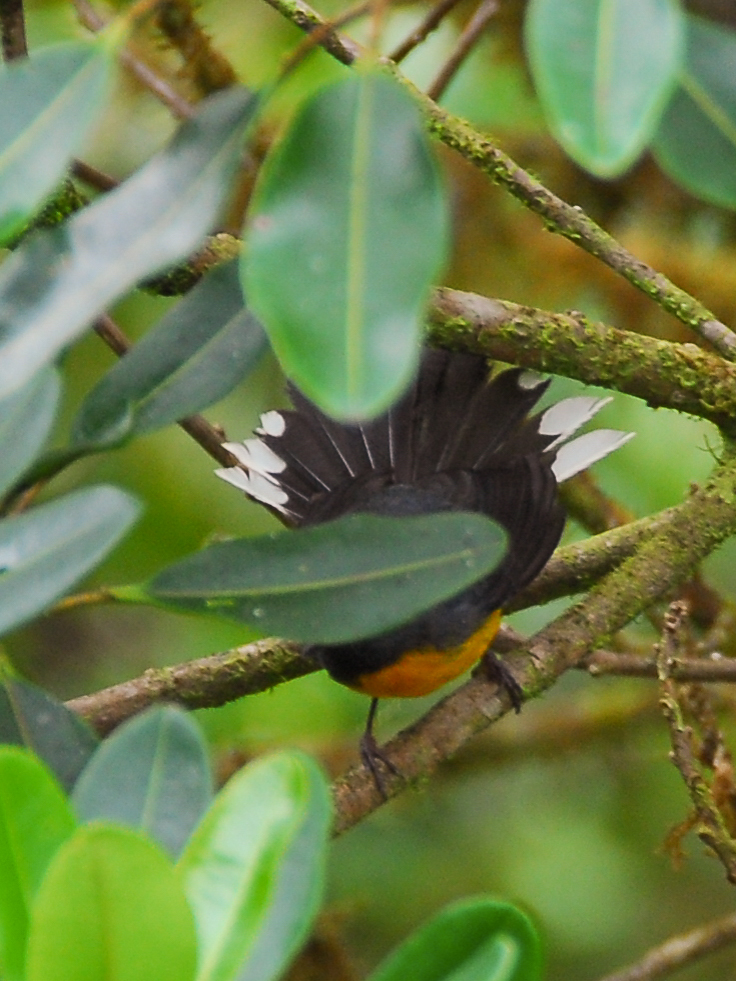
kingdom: Animalia
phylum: Chordata
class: Aves
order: Passeriformes
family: Parulidae
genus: Myioborus
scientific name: Myioborus miniatus
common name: Slate-throated redstart
